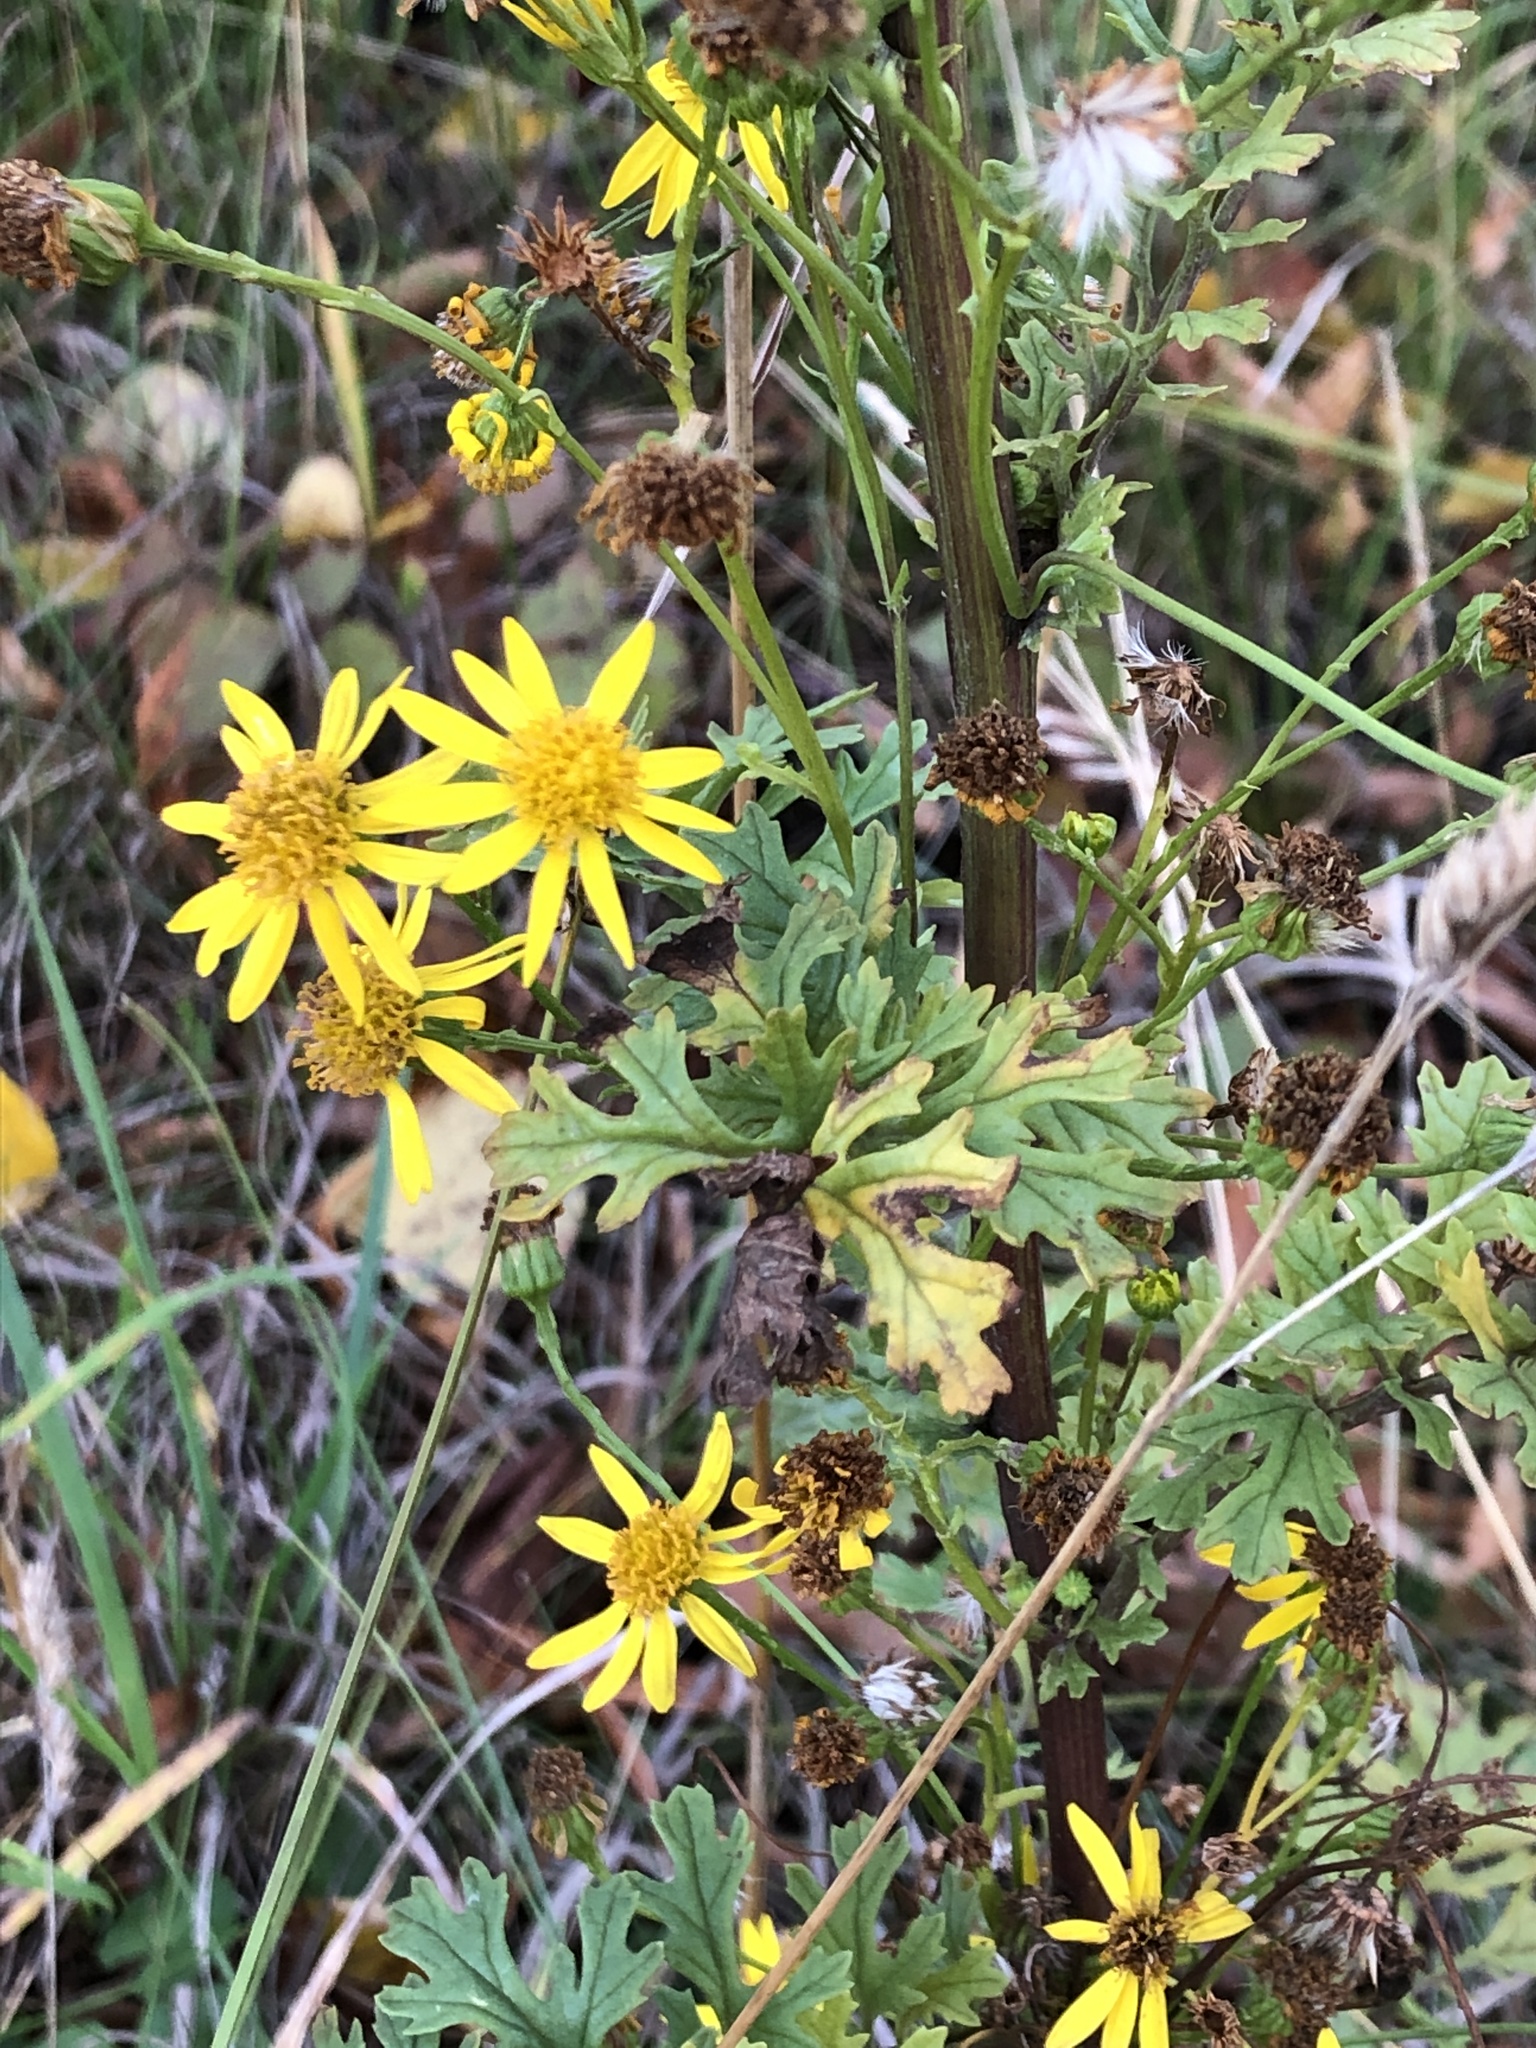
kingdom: Plantae
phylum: Tracheophyta
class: Magnoliopsida
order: Asterales
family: Asteraceae
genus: Jacobaea
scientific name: Jacobaea vulgaris
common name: Stinking willie
